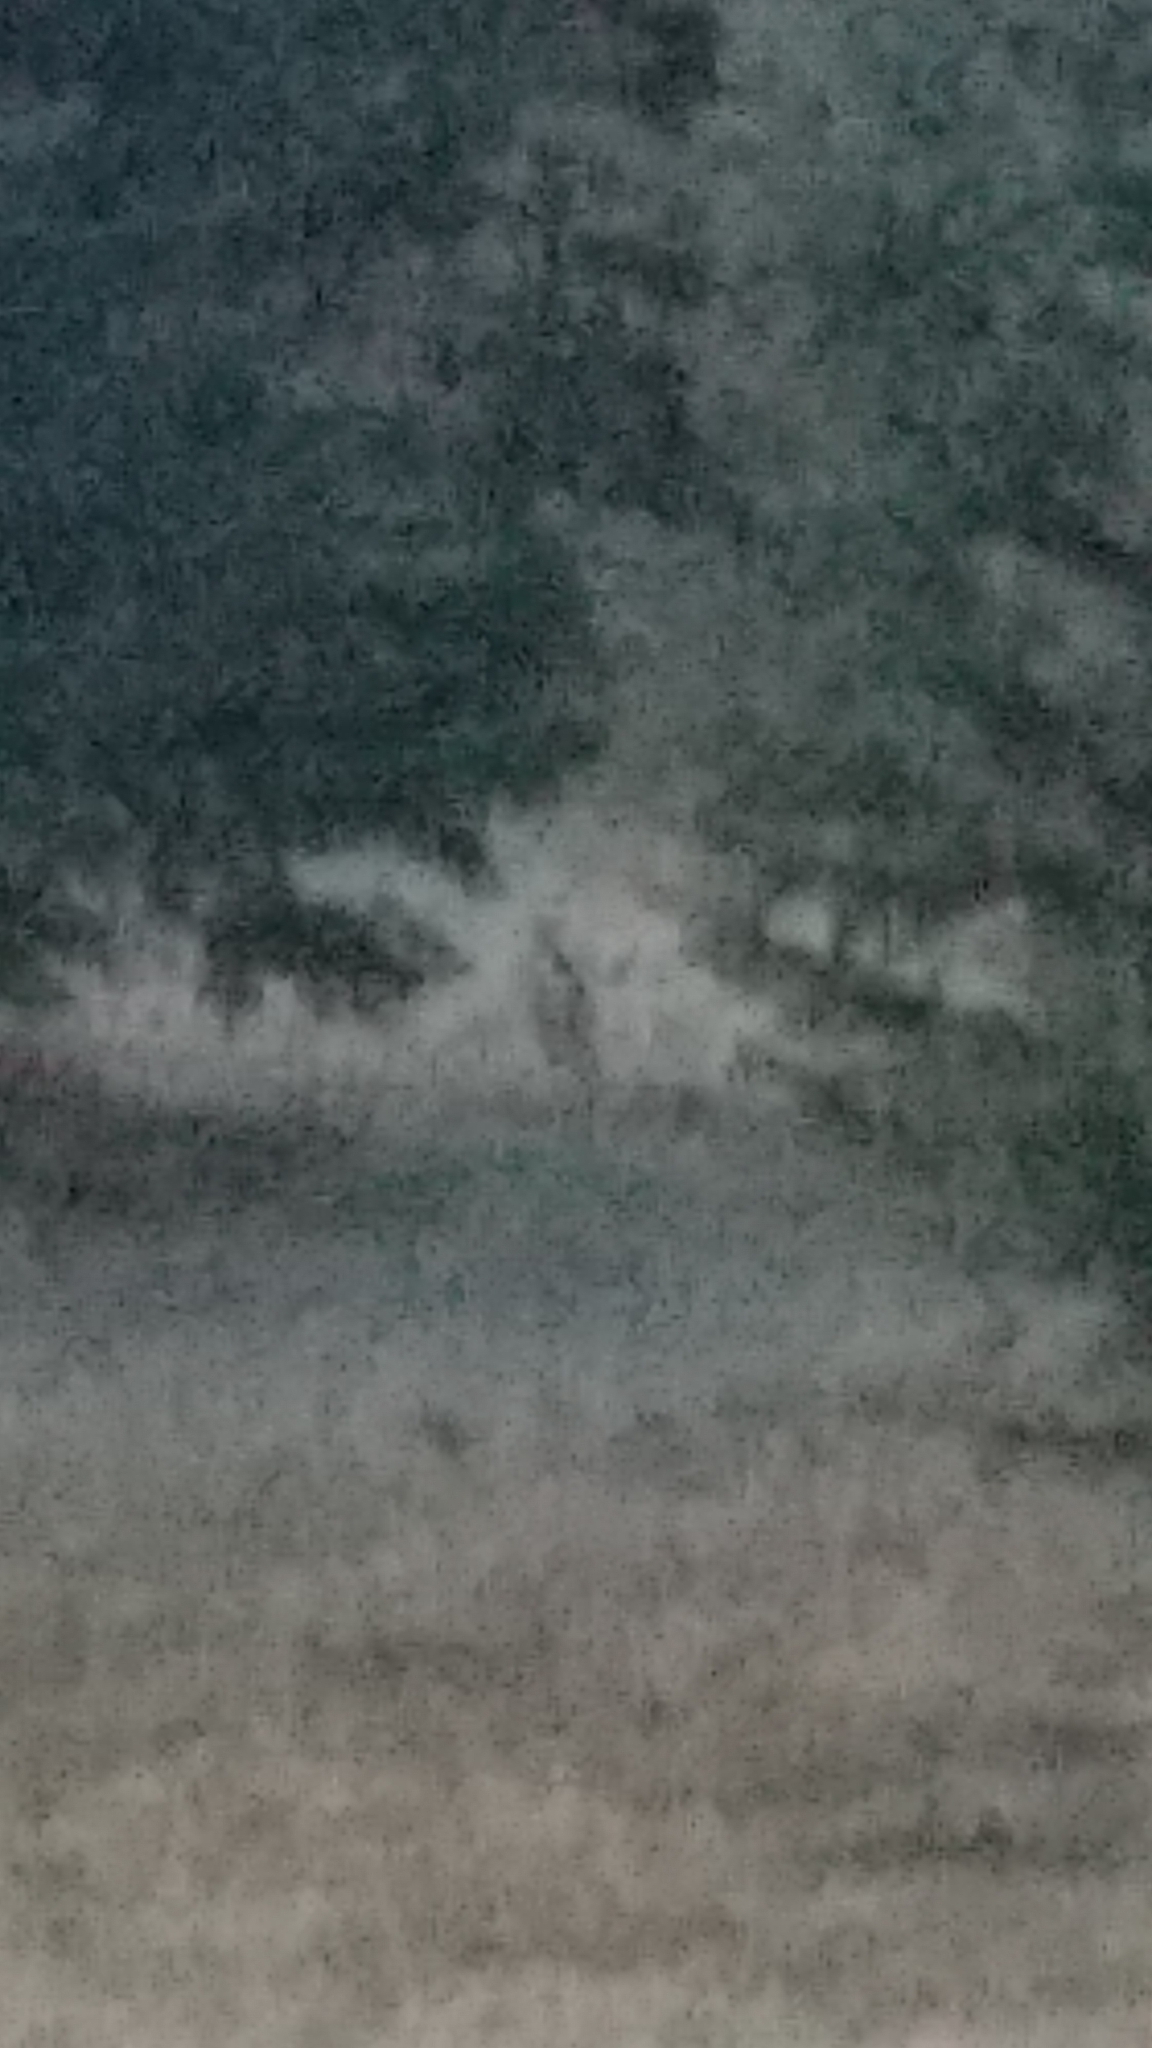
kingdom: Animalia
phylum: Chordata
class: Mammalia
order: Lagomorpha
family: Leporidae
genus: Sylvilagus
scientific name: Sylvilagus floridanus
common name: Eastern cottontail
